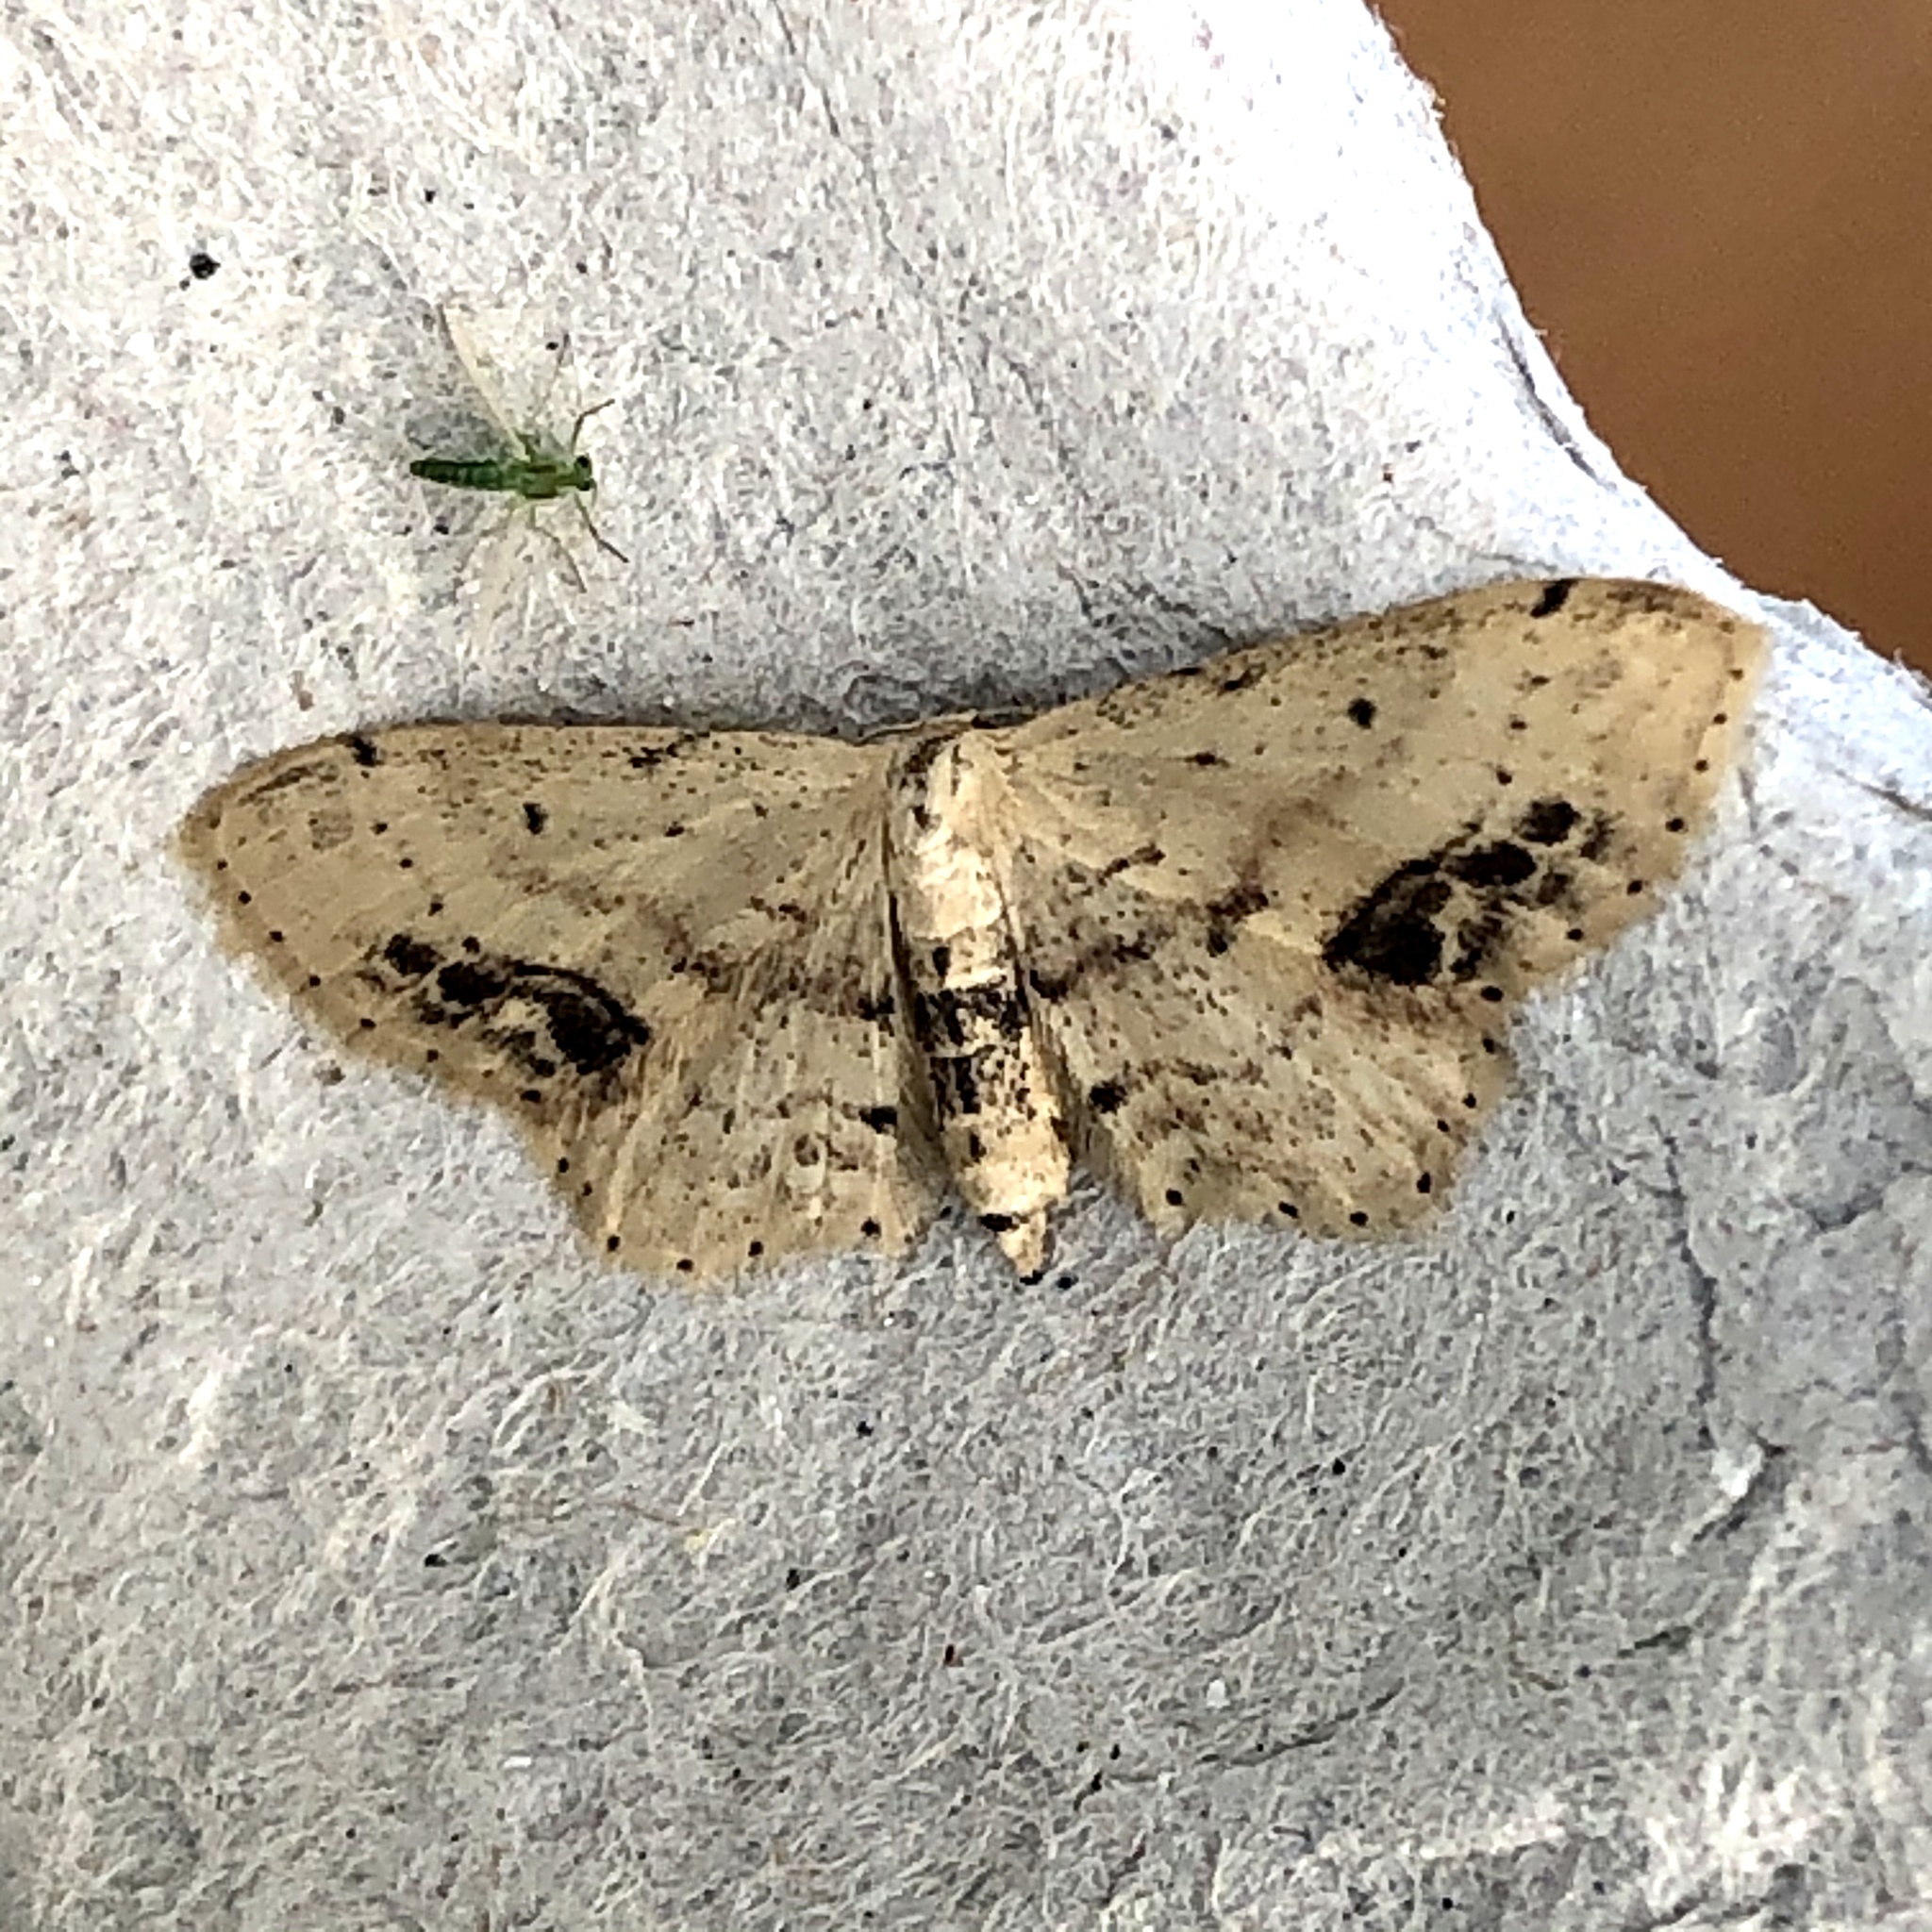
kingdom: Animalia
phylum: Arthropoda
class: Insecta
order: Lepidoptera
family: Geometridae
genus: Idaea
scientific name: Idaea dimidiata
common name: Single-dotted wave
